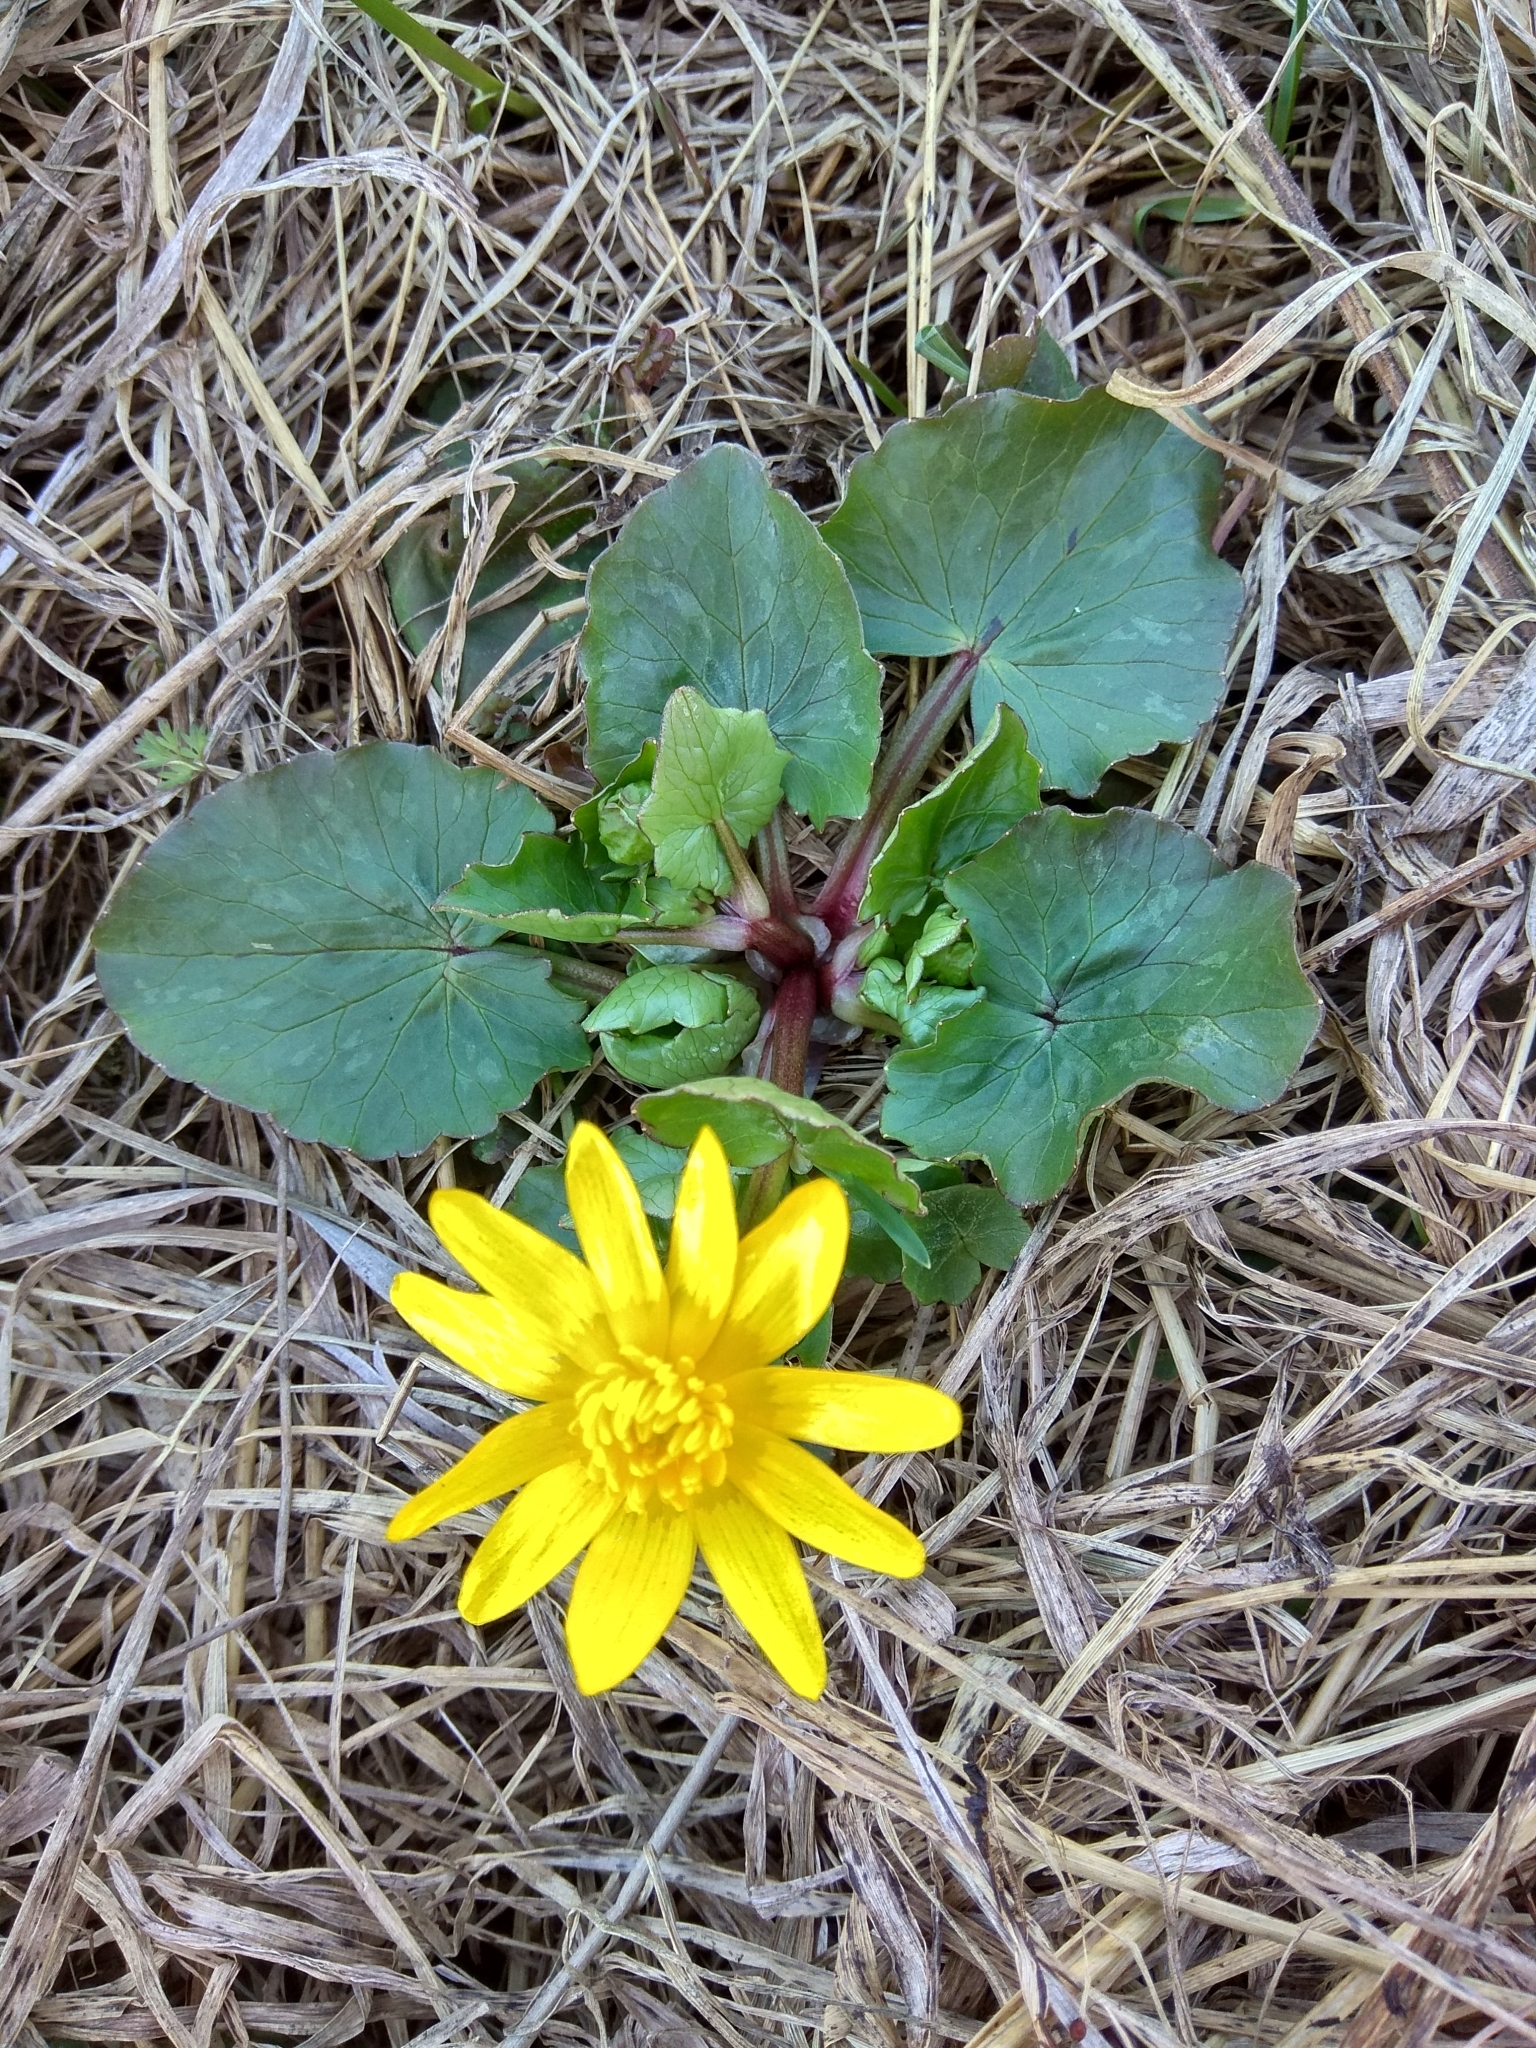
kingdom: Plantae
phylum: Tracheophyta
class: Magnoliopsida
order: Ranunculales
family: Ranunculaceae
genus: Ficaria
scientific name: Ficaria verna
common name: Lesser celandine
